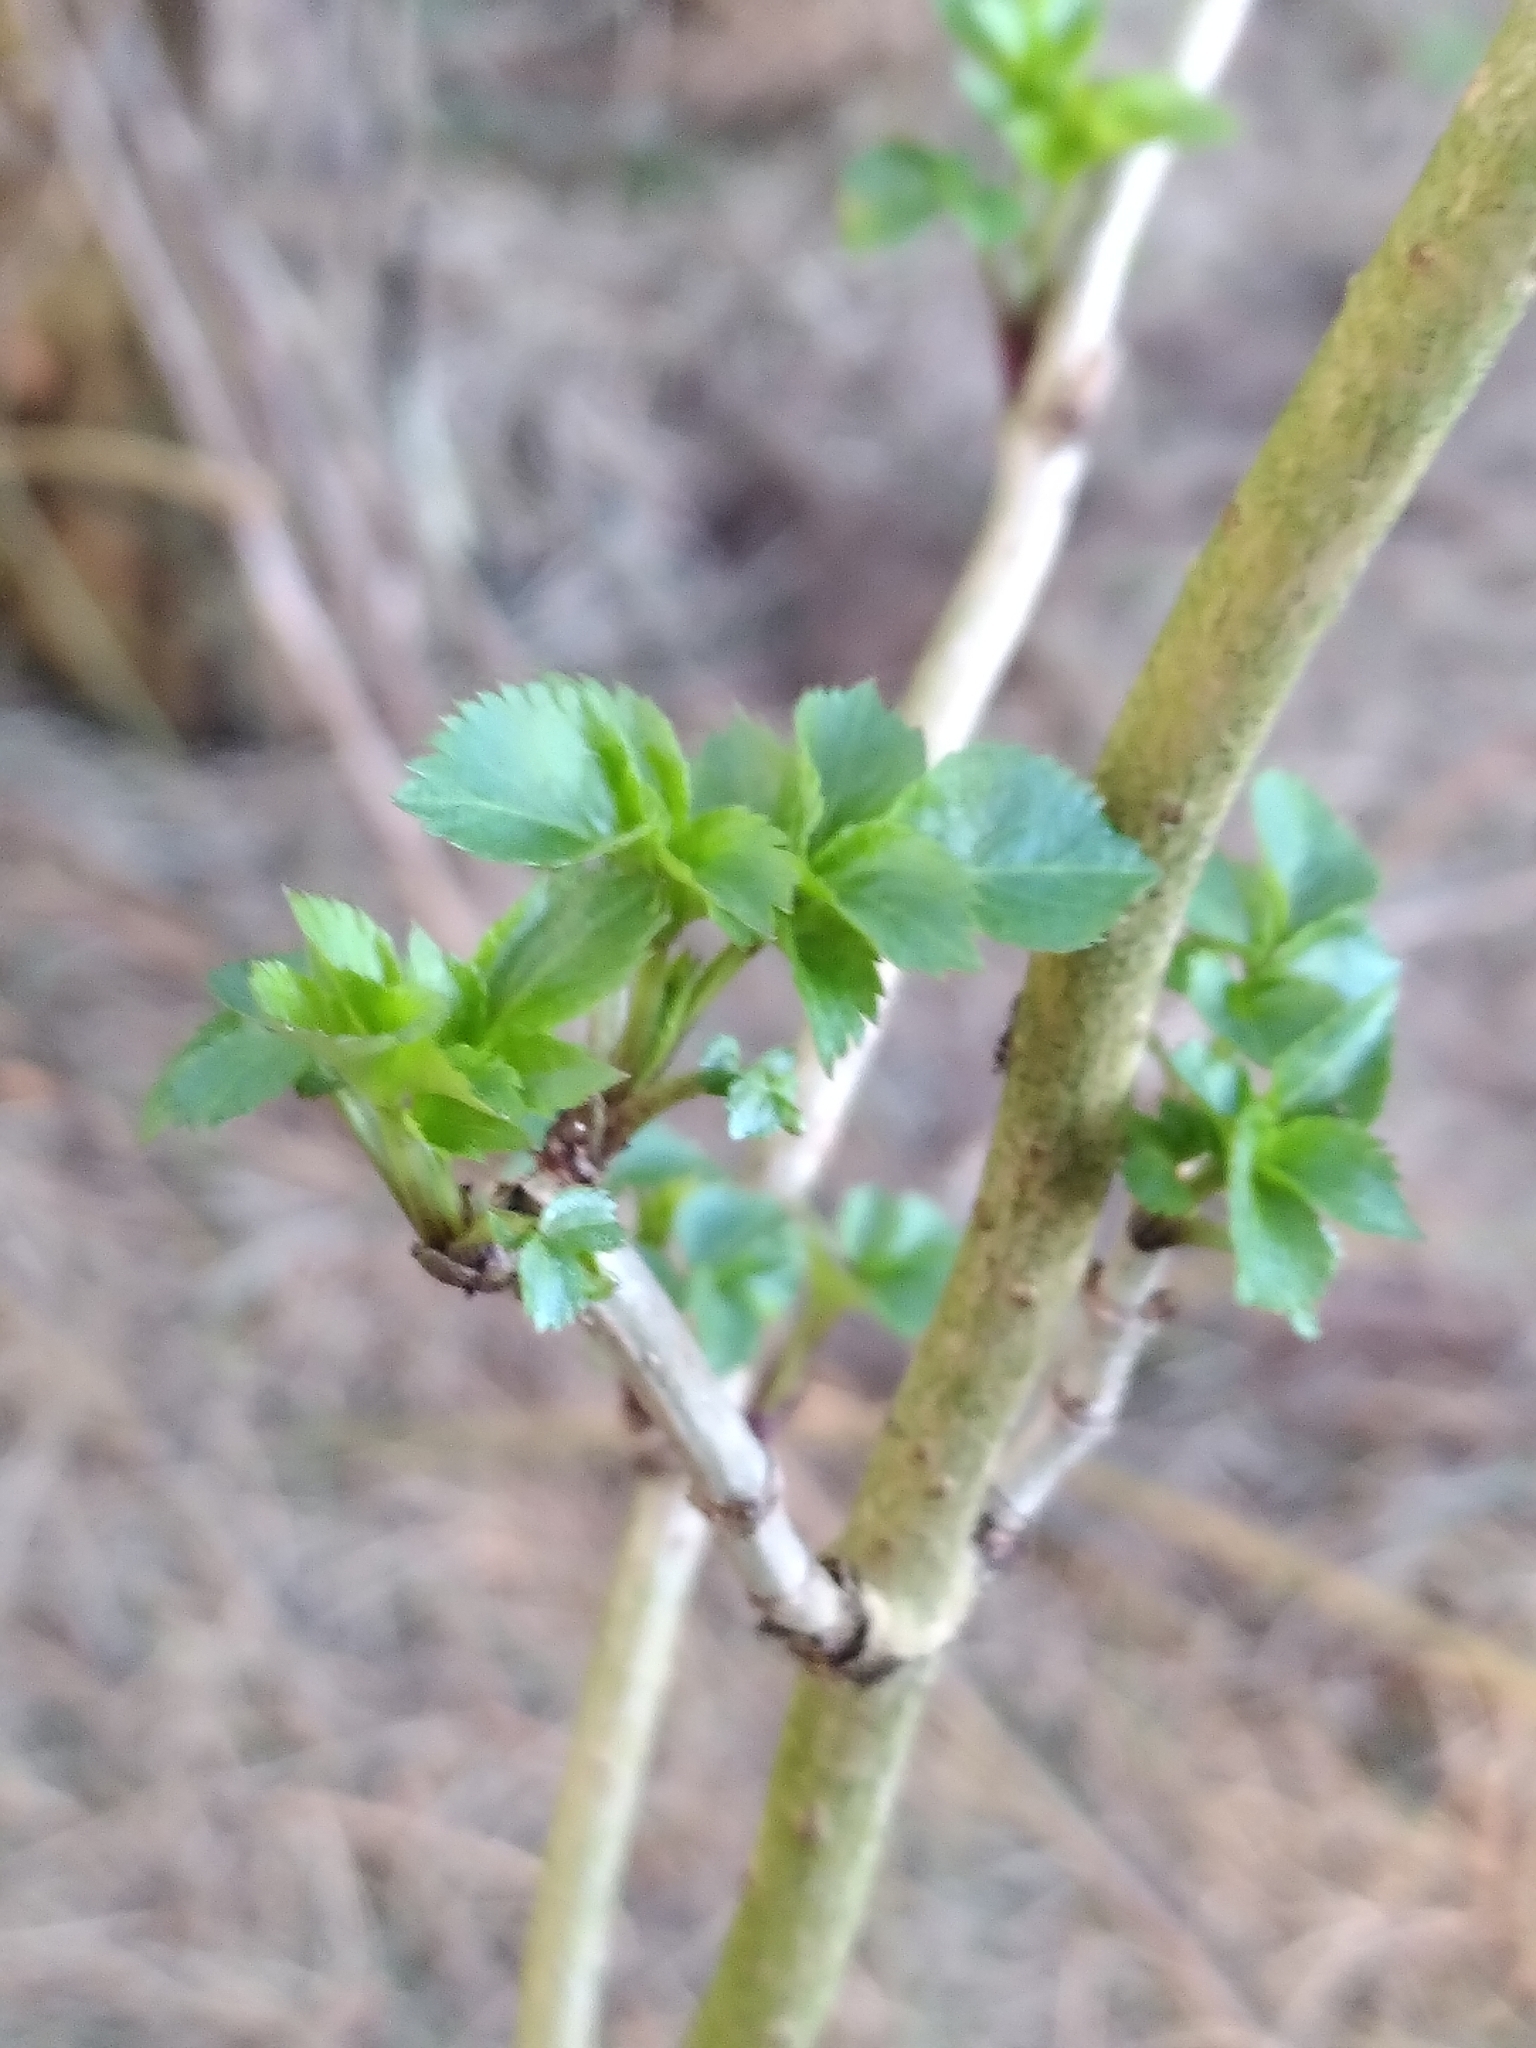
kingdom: Plantae
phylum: Tracheophyta
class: Magnoliopsida
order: Dipsacales
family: Viburnaceae
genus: Sambucus
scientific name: Sambucus nigra
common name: Elder
